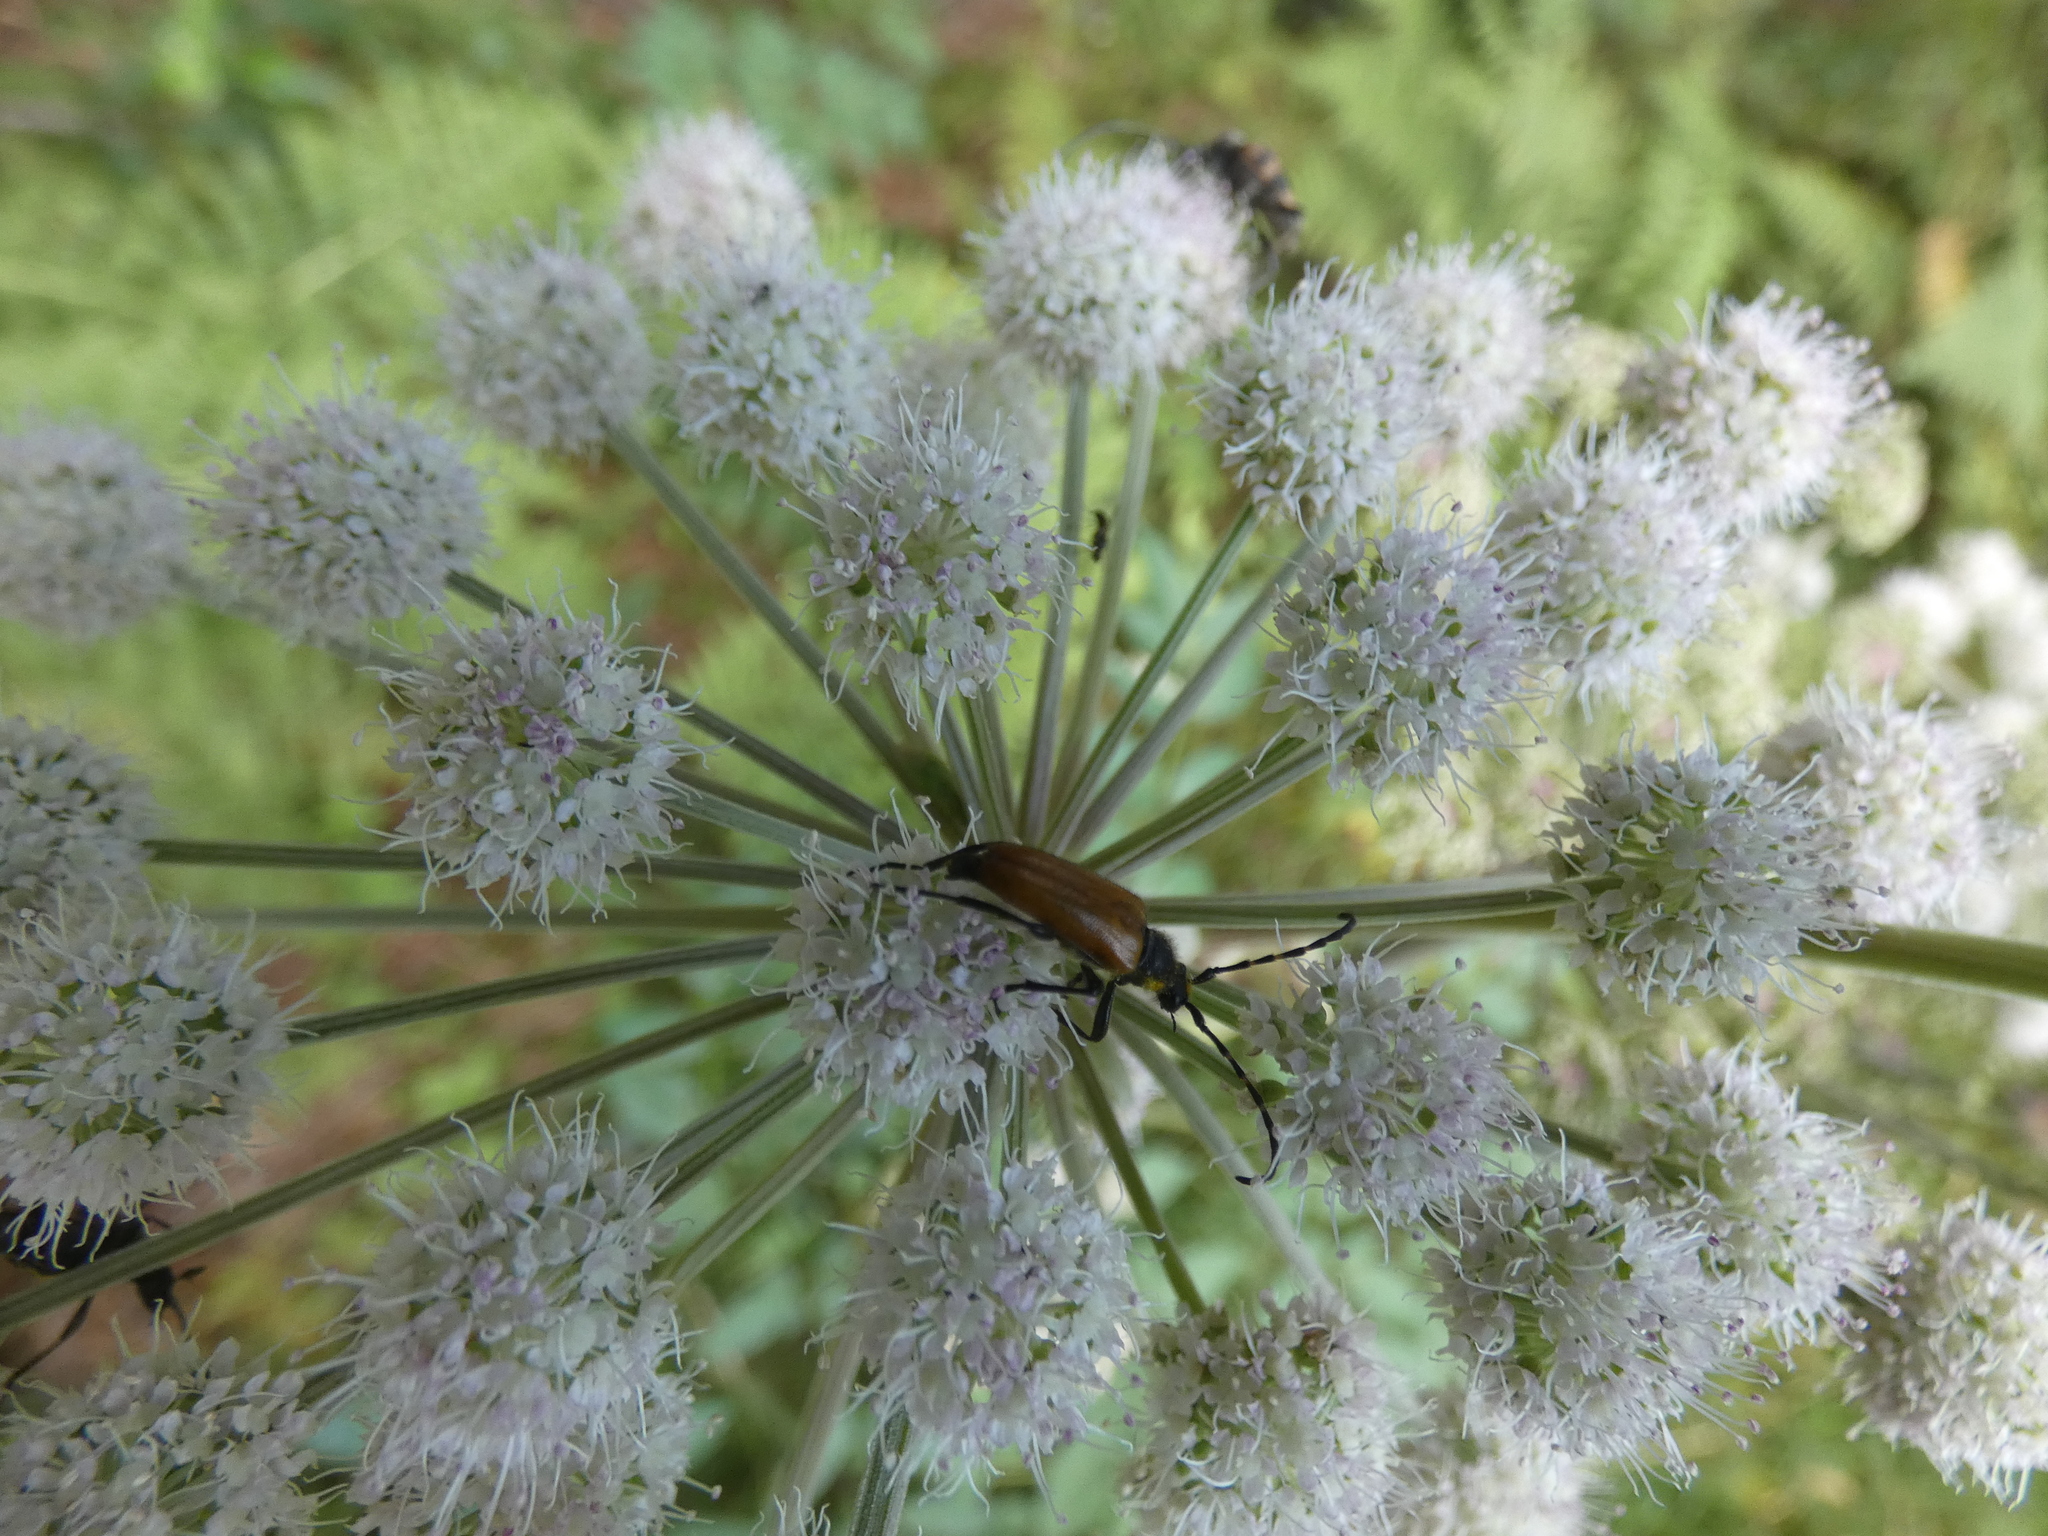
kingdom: Animalia
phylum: Arthropoda
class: Insecta
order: Coleoptera
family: Cerambycidae
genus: Paracorymbia
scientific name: Paracorymbia hybrida
